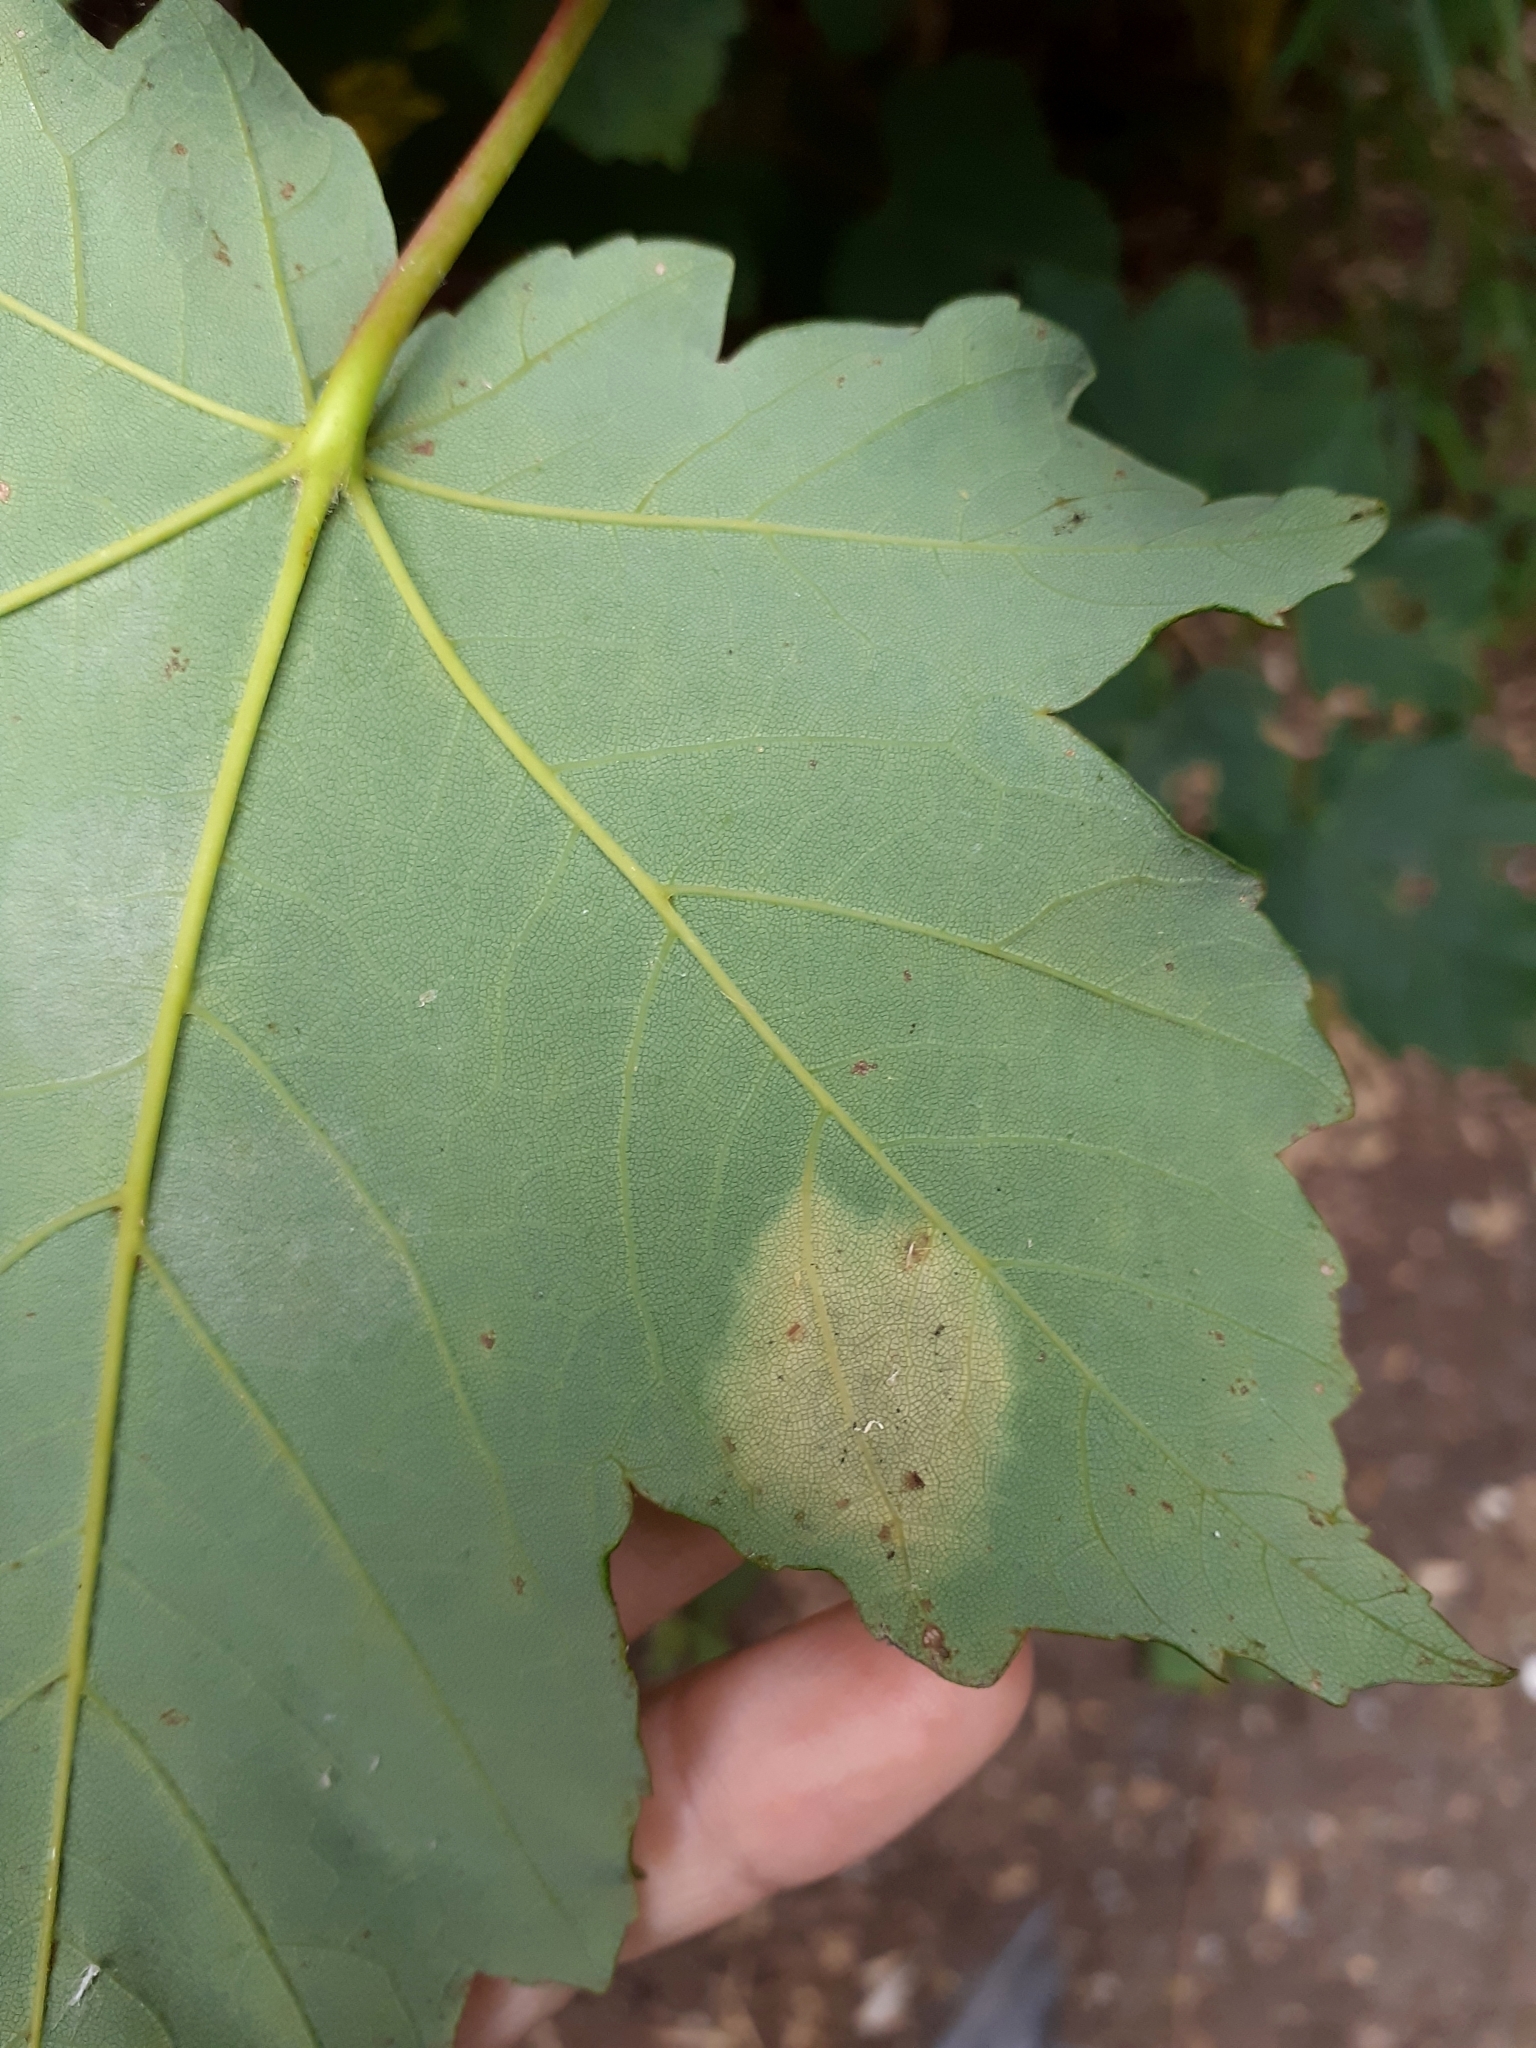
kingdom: Fungi
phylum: Ascomycota
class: Leotiomycetes
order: Rhytismatales
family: Rhytismataceae
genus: Rhytisma
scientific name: Rhytisma acerinum
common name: European tar spot
